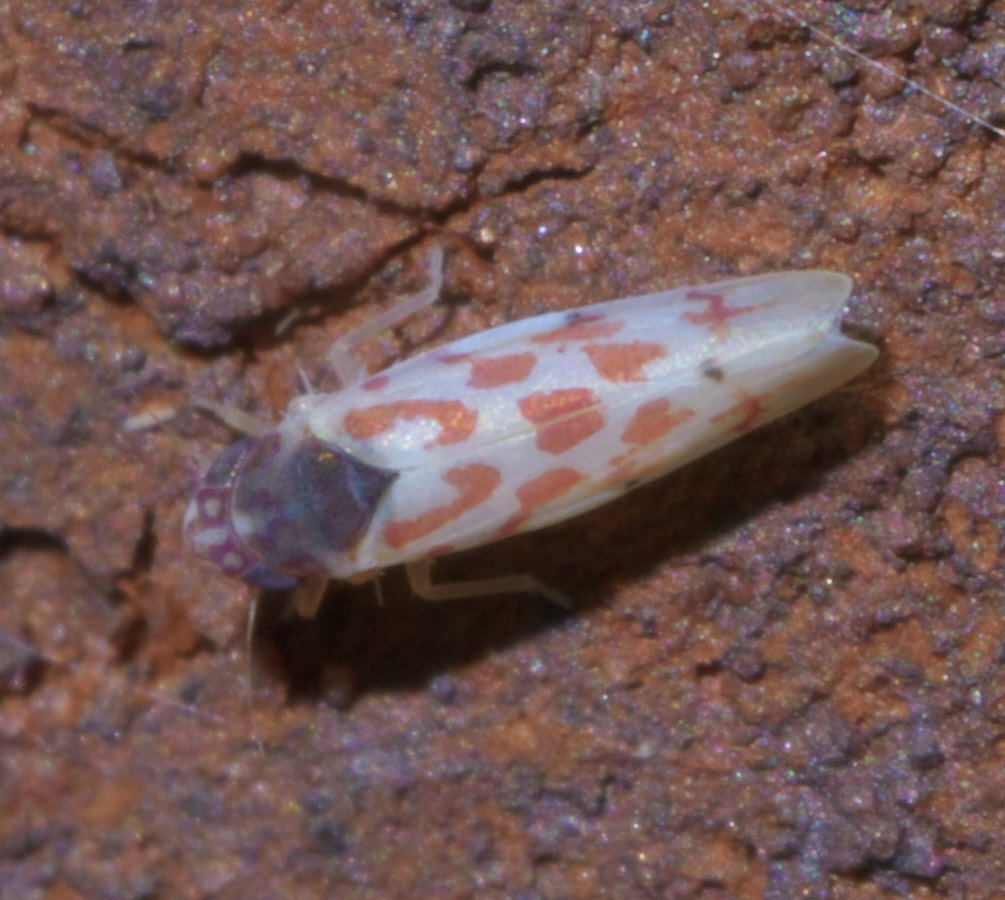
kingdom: Animalia
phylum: Arthropoda
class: Insecta
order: Hemiptera
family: Cicadellidae
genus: Eratoneura
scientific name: Eratoneura ardens
